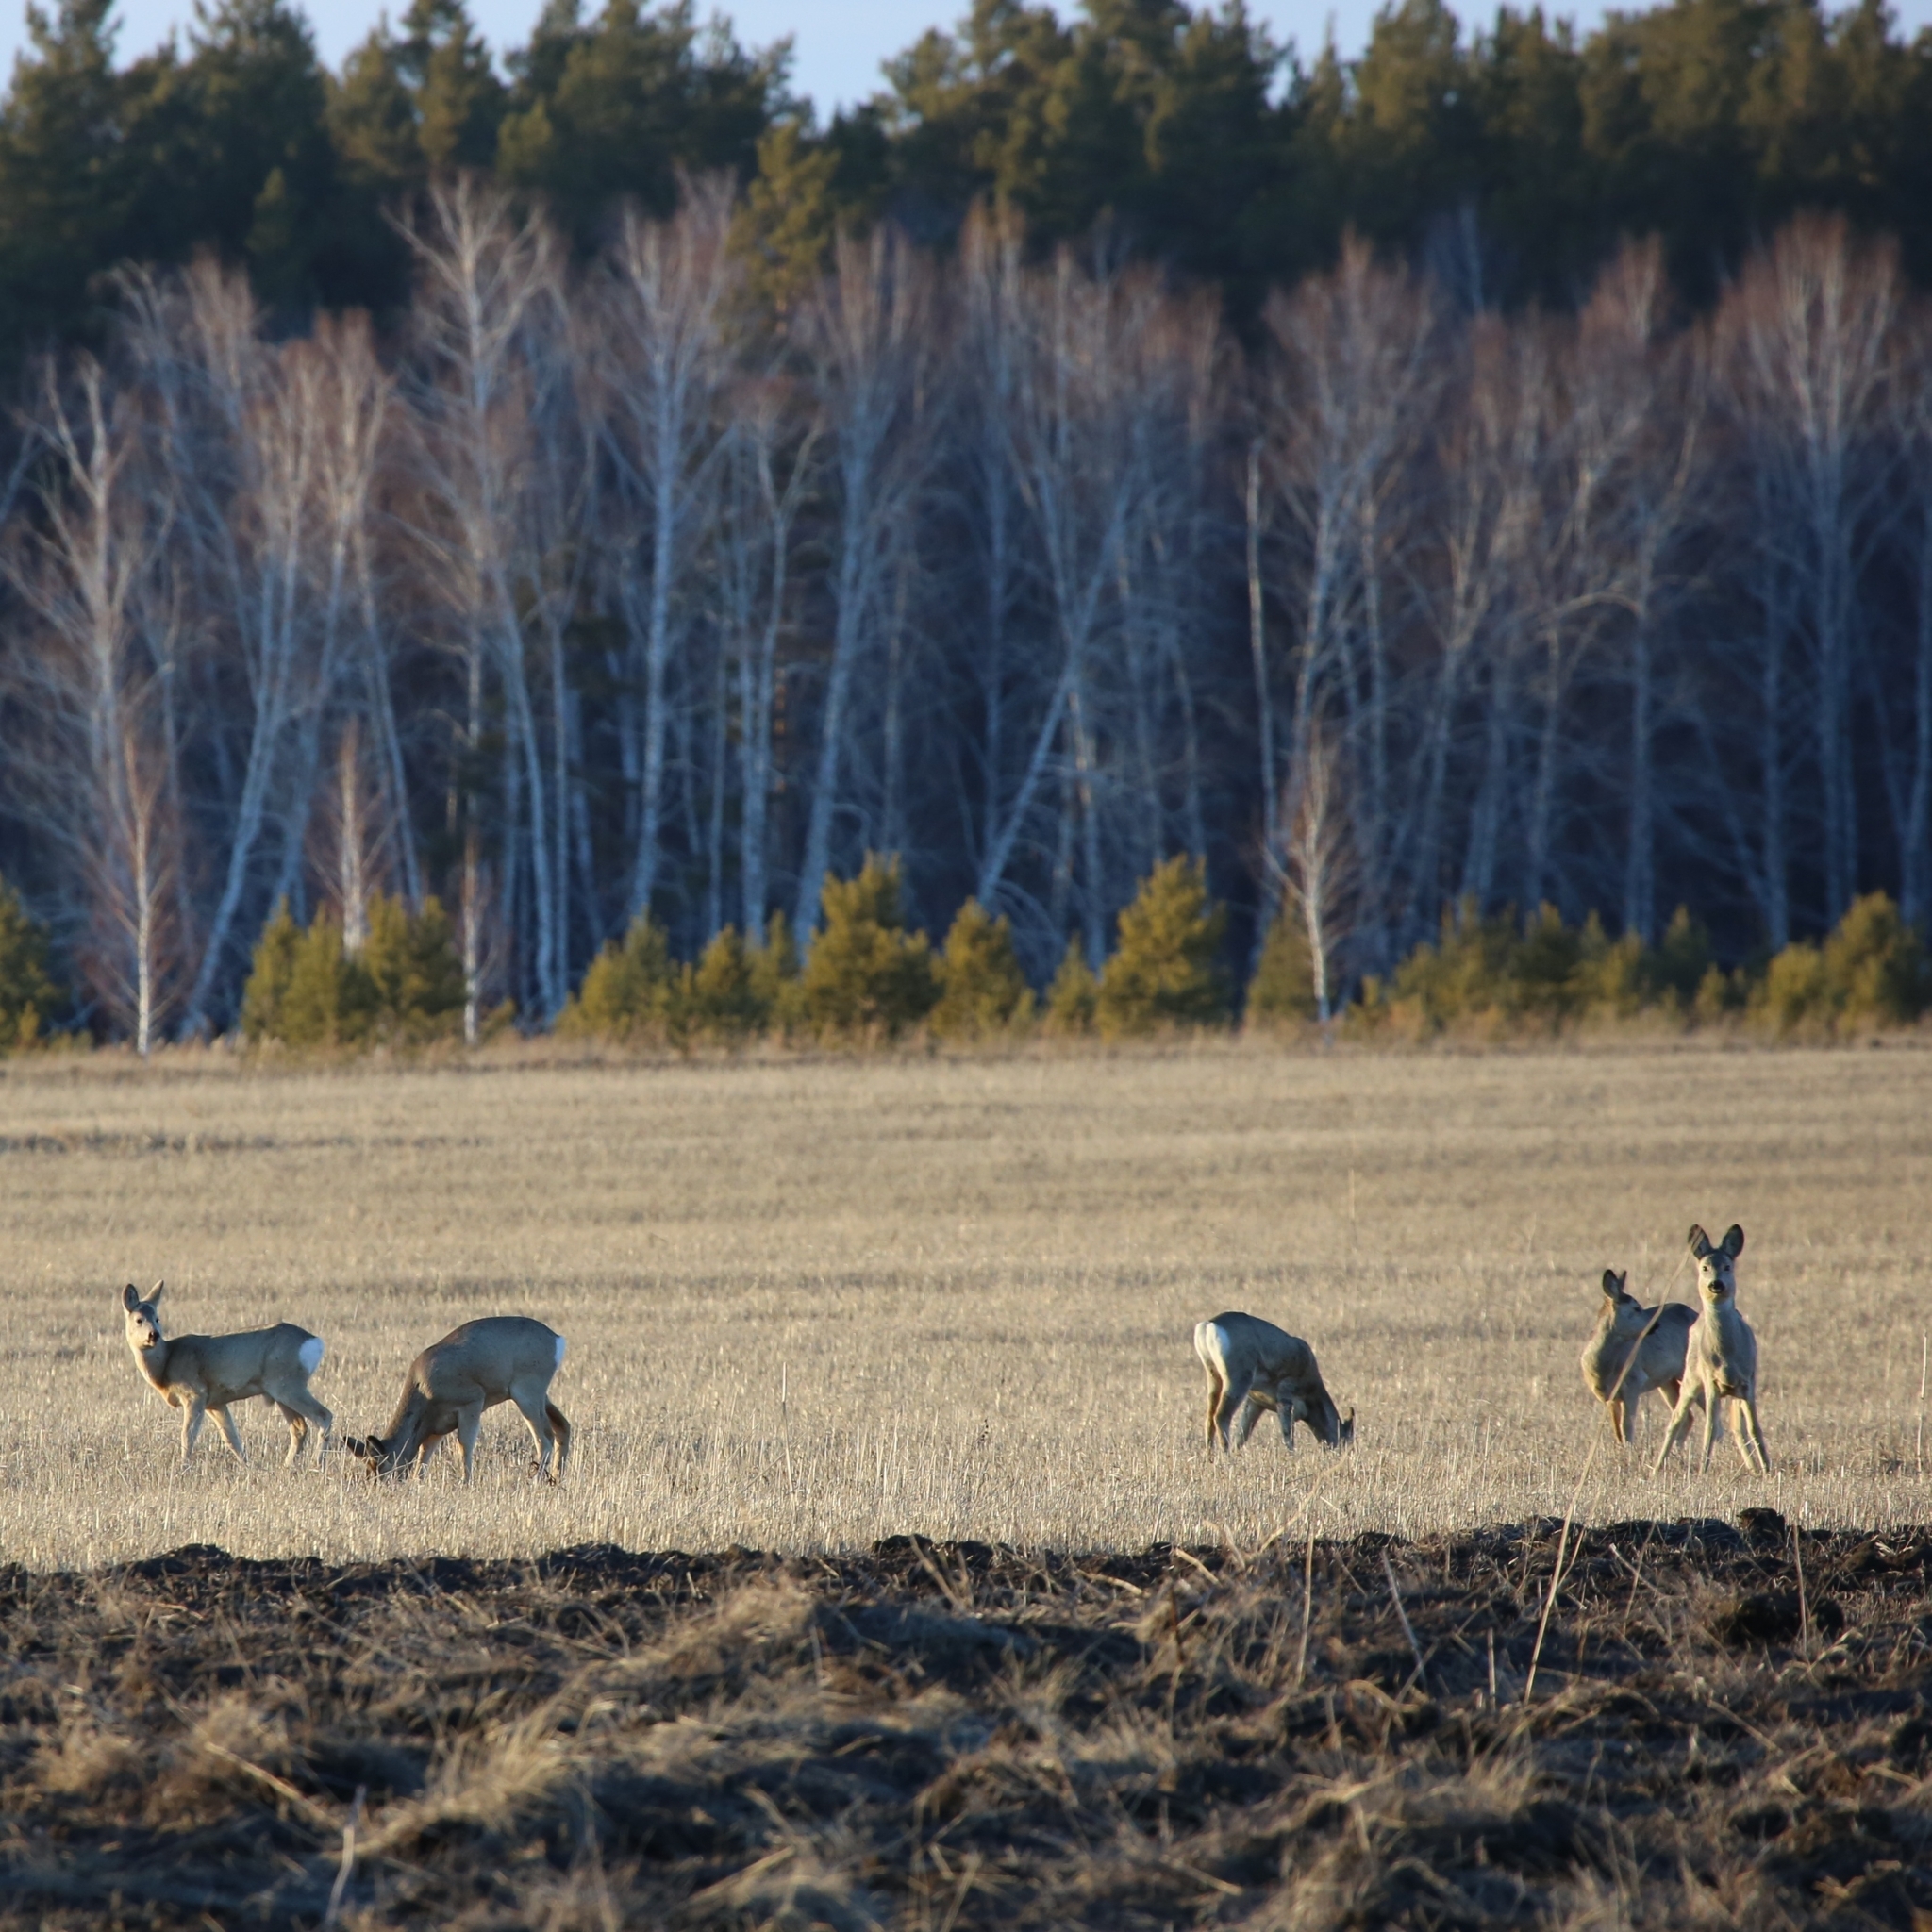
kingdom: Animalia
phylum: Chordata
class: Mammalia
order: Artiodactyla
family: Cervidae
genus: Capreolus
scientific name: Capreolus pygargus
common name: Siberian roe
